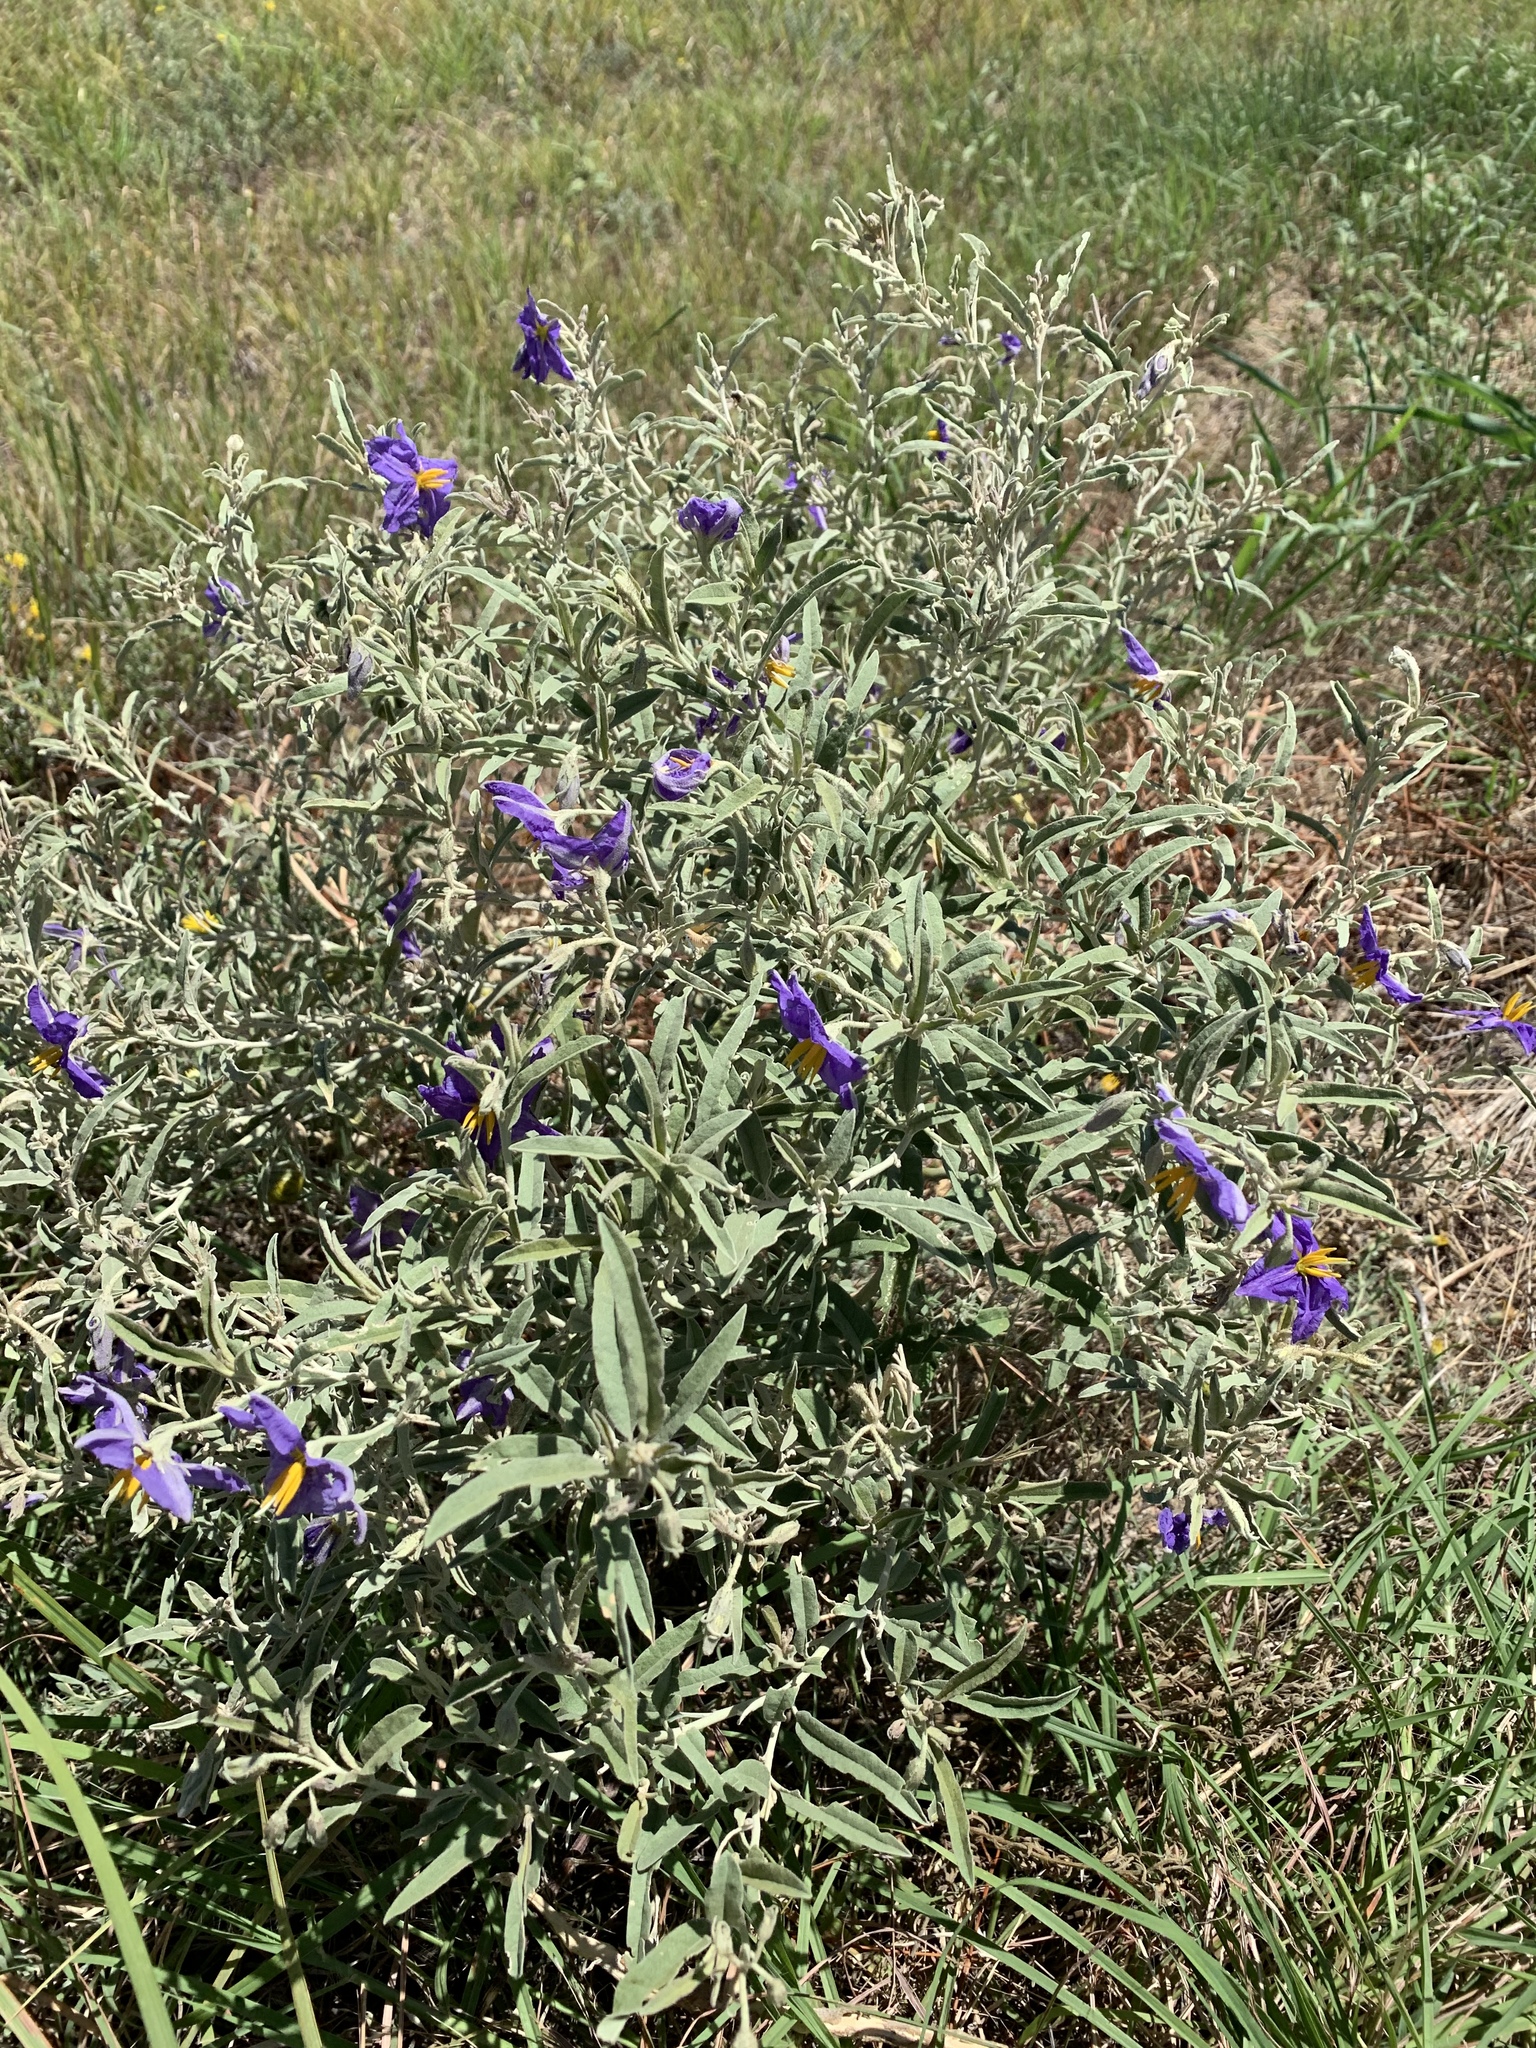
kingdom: Plantae
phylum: Tracheophyta
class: Magnoliopsida
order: Solanales
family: Solanaceae
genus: Solanum
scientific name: Solanum elaeagnifolium
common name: Silverleaf nightshade
